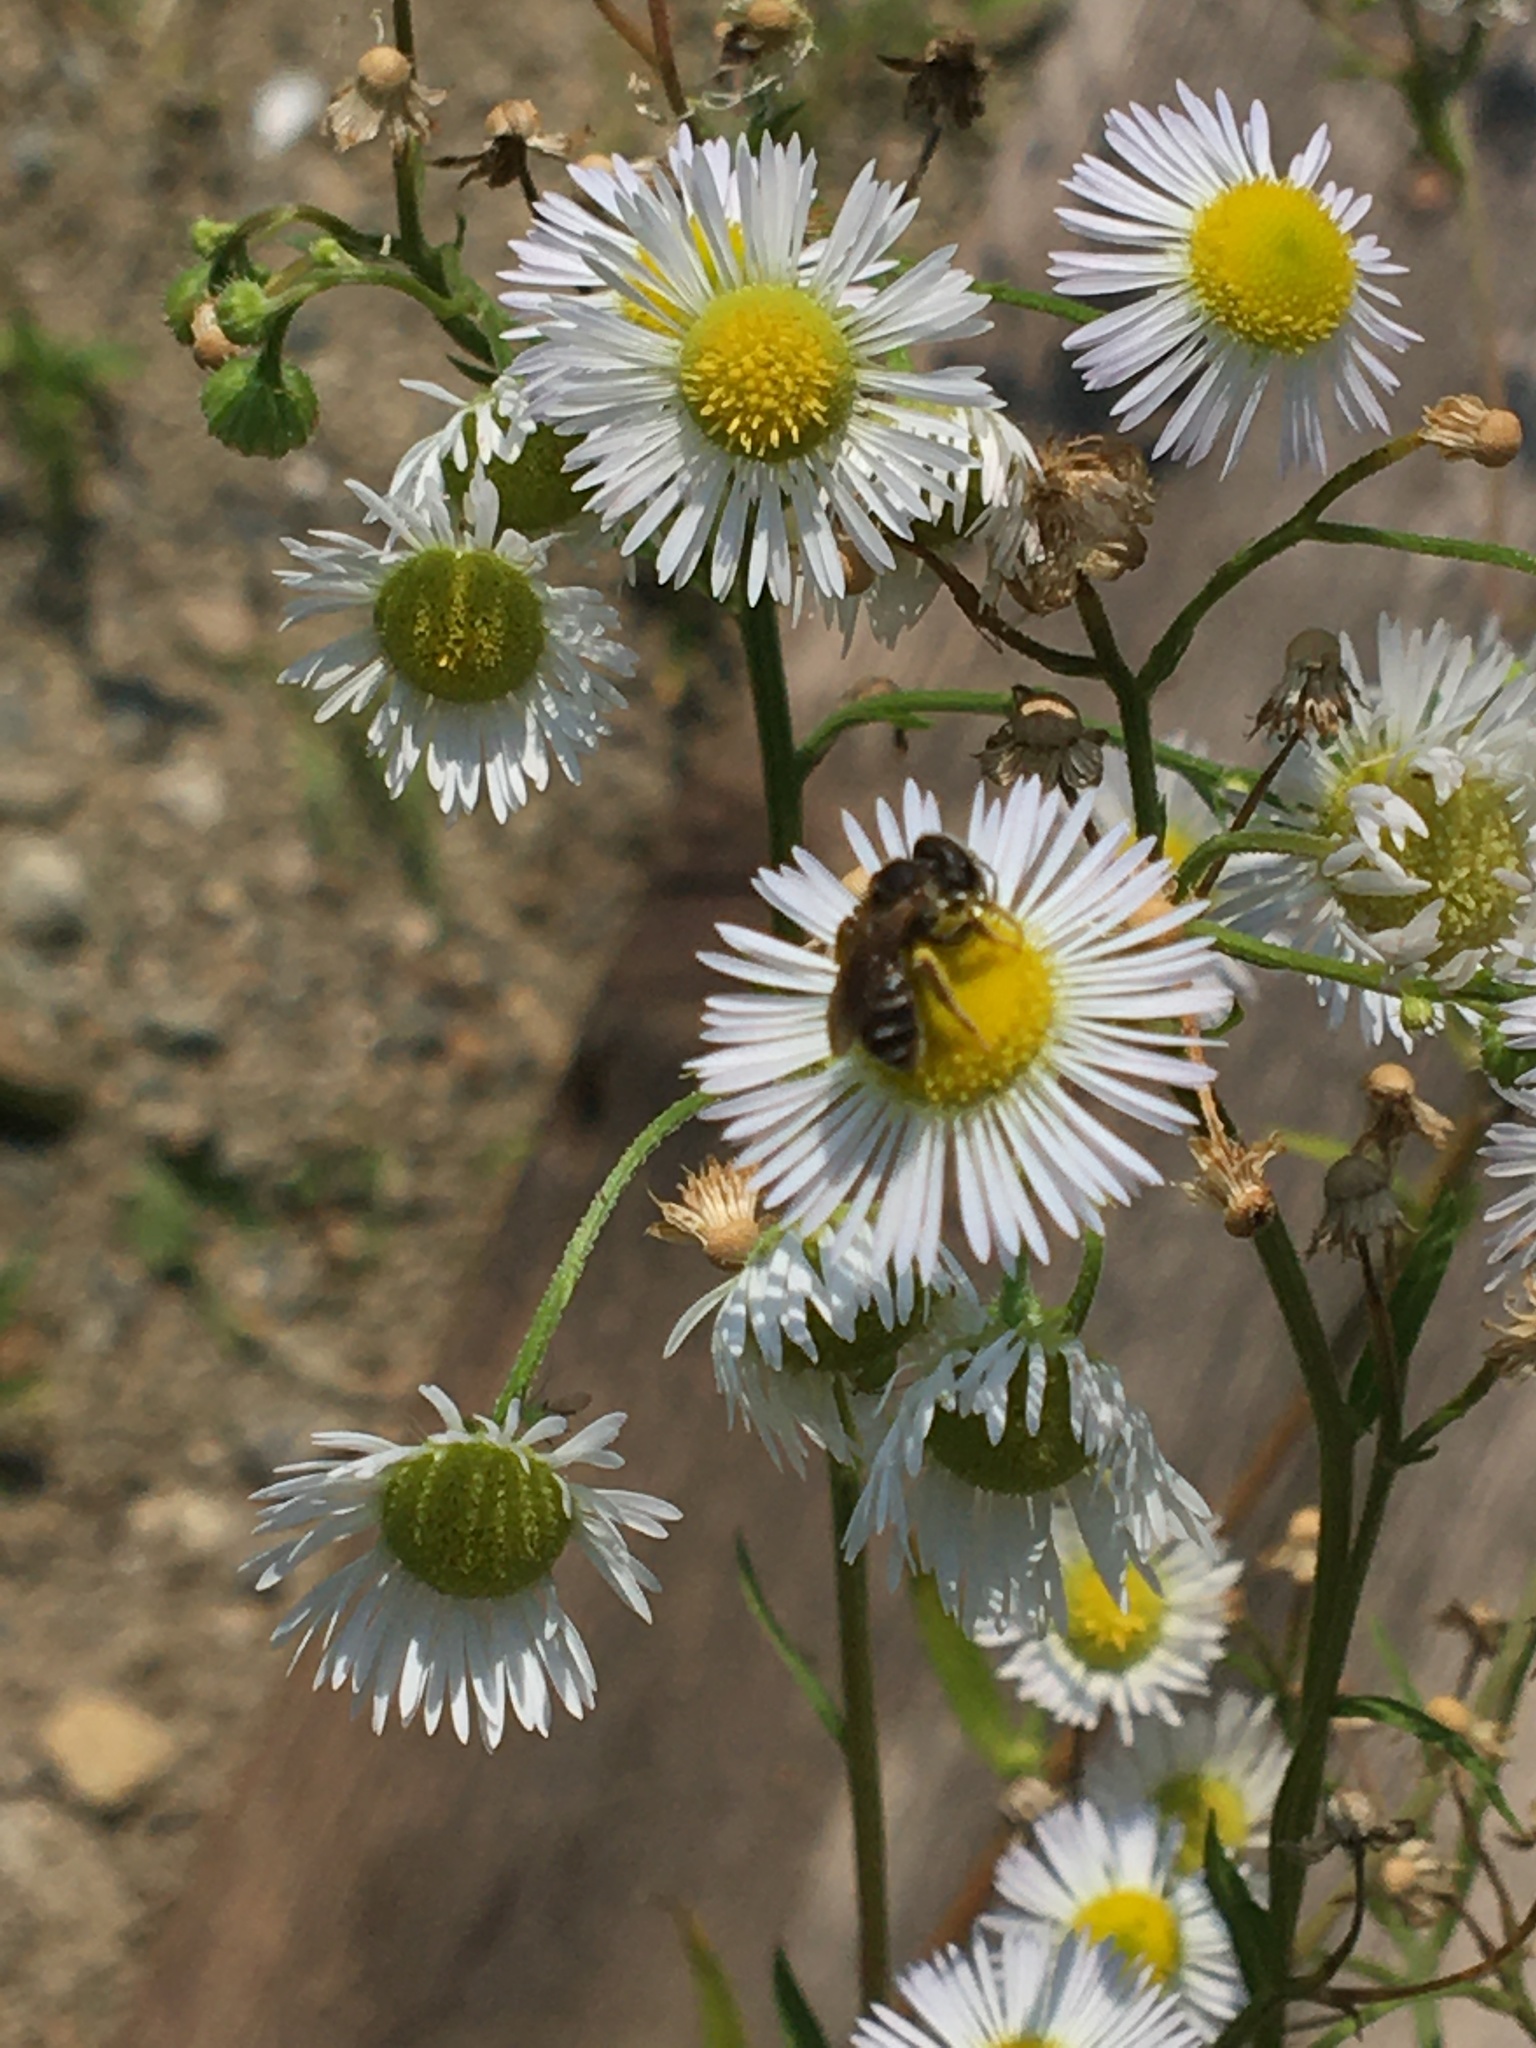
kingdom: Animalia
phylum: Arthropoda
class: Insecta
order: Hymenoptera
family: Halictidae
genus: Halictus
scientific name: Halictus
